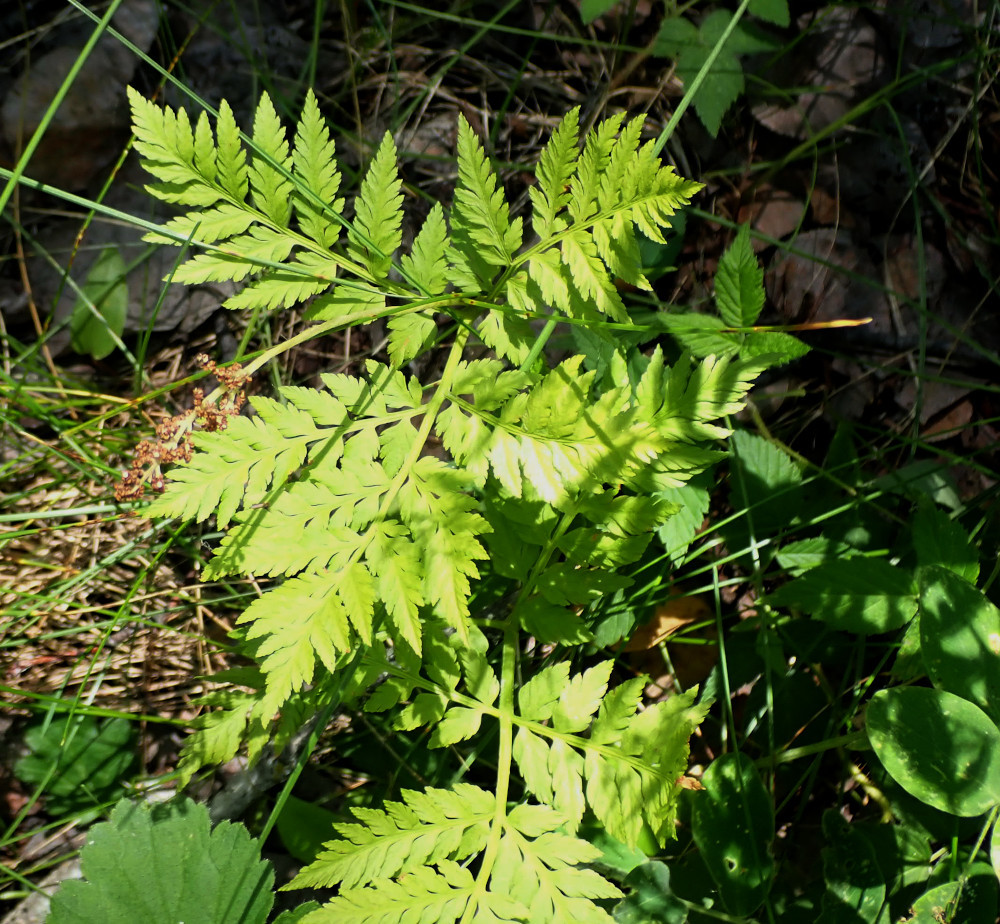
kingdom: Plantae
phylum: Tracheophyta
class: Polypodiopsida
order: Ophioglossales
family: Ophioglossaceae
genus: Botrypus
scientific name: Botrypus virginianus
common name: Common grapefern
